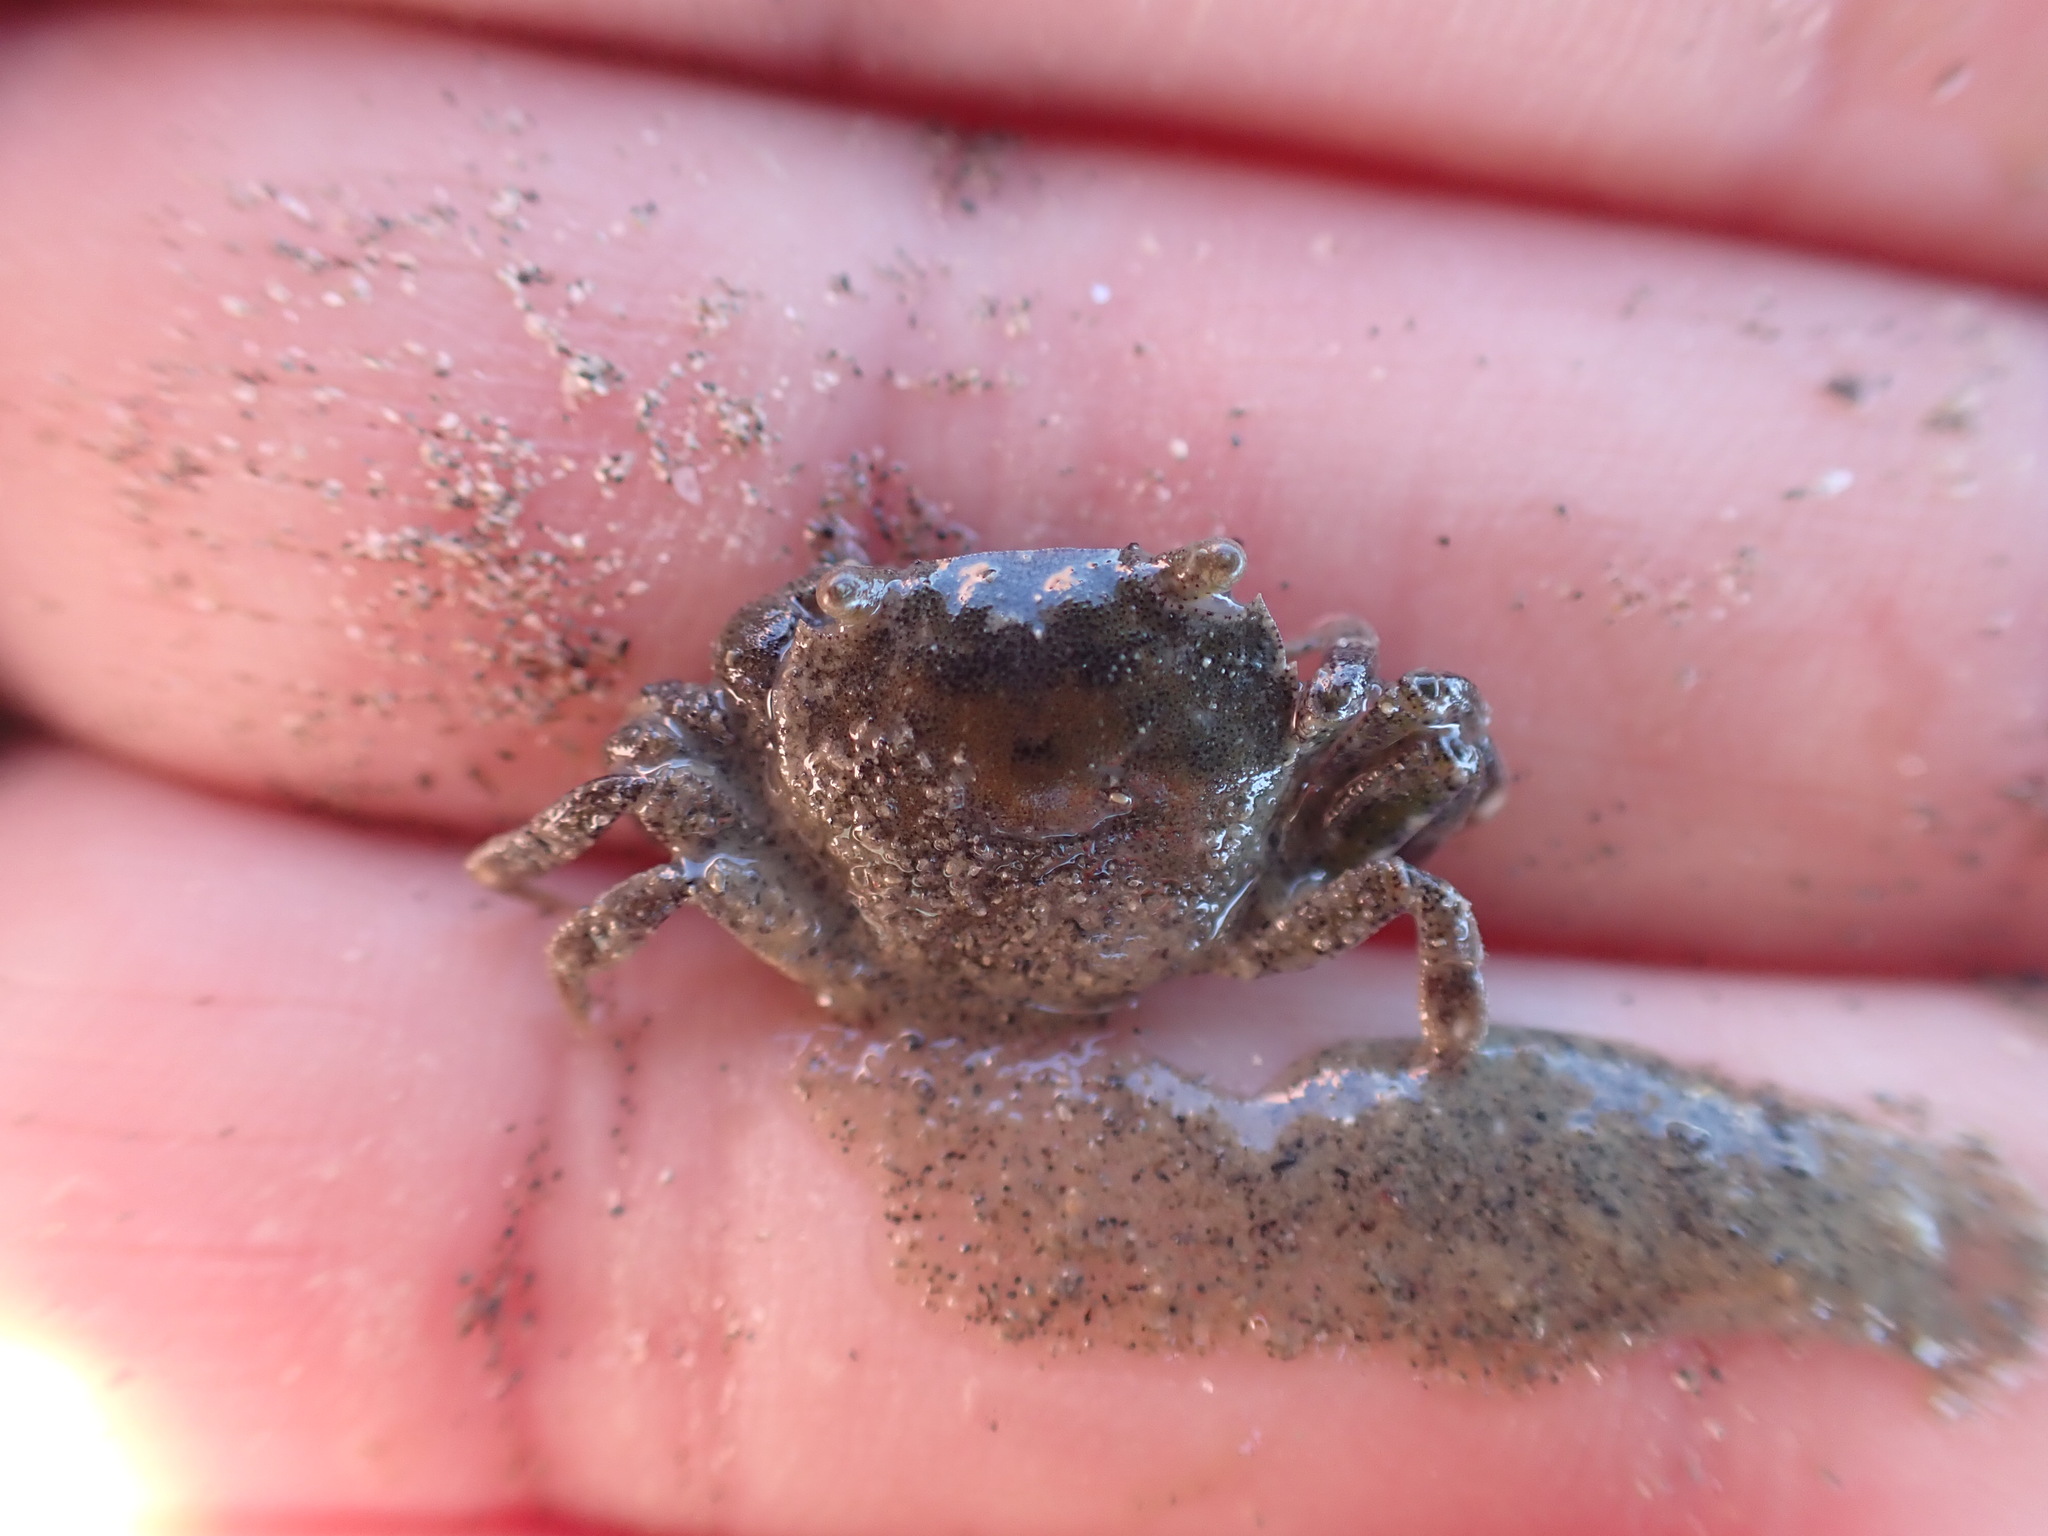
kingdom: Animalia
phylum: Arthropoda
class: Malacostraca
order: Decapoda
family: Varunidae
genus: Hemigrapsus
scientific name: Hemigrapsus crenulatus
